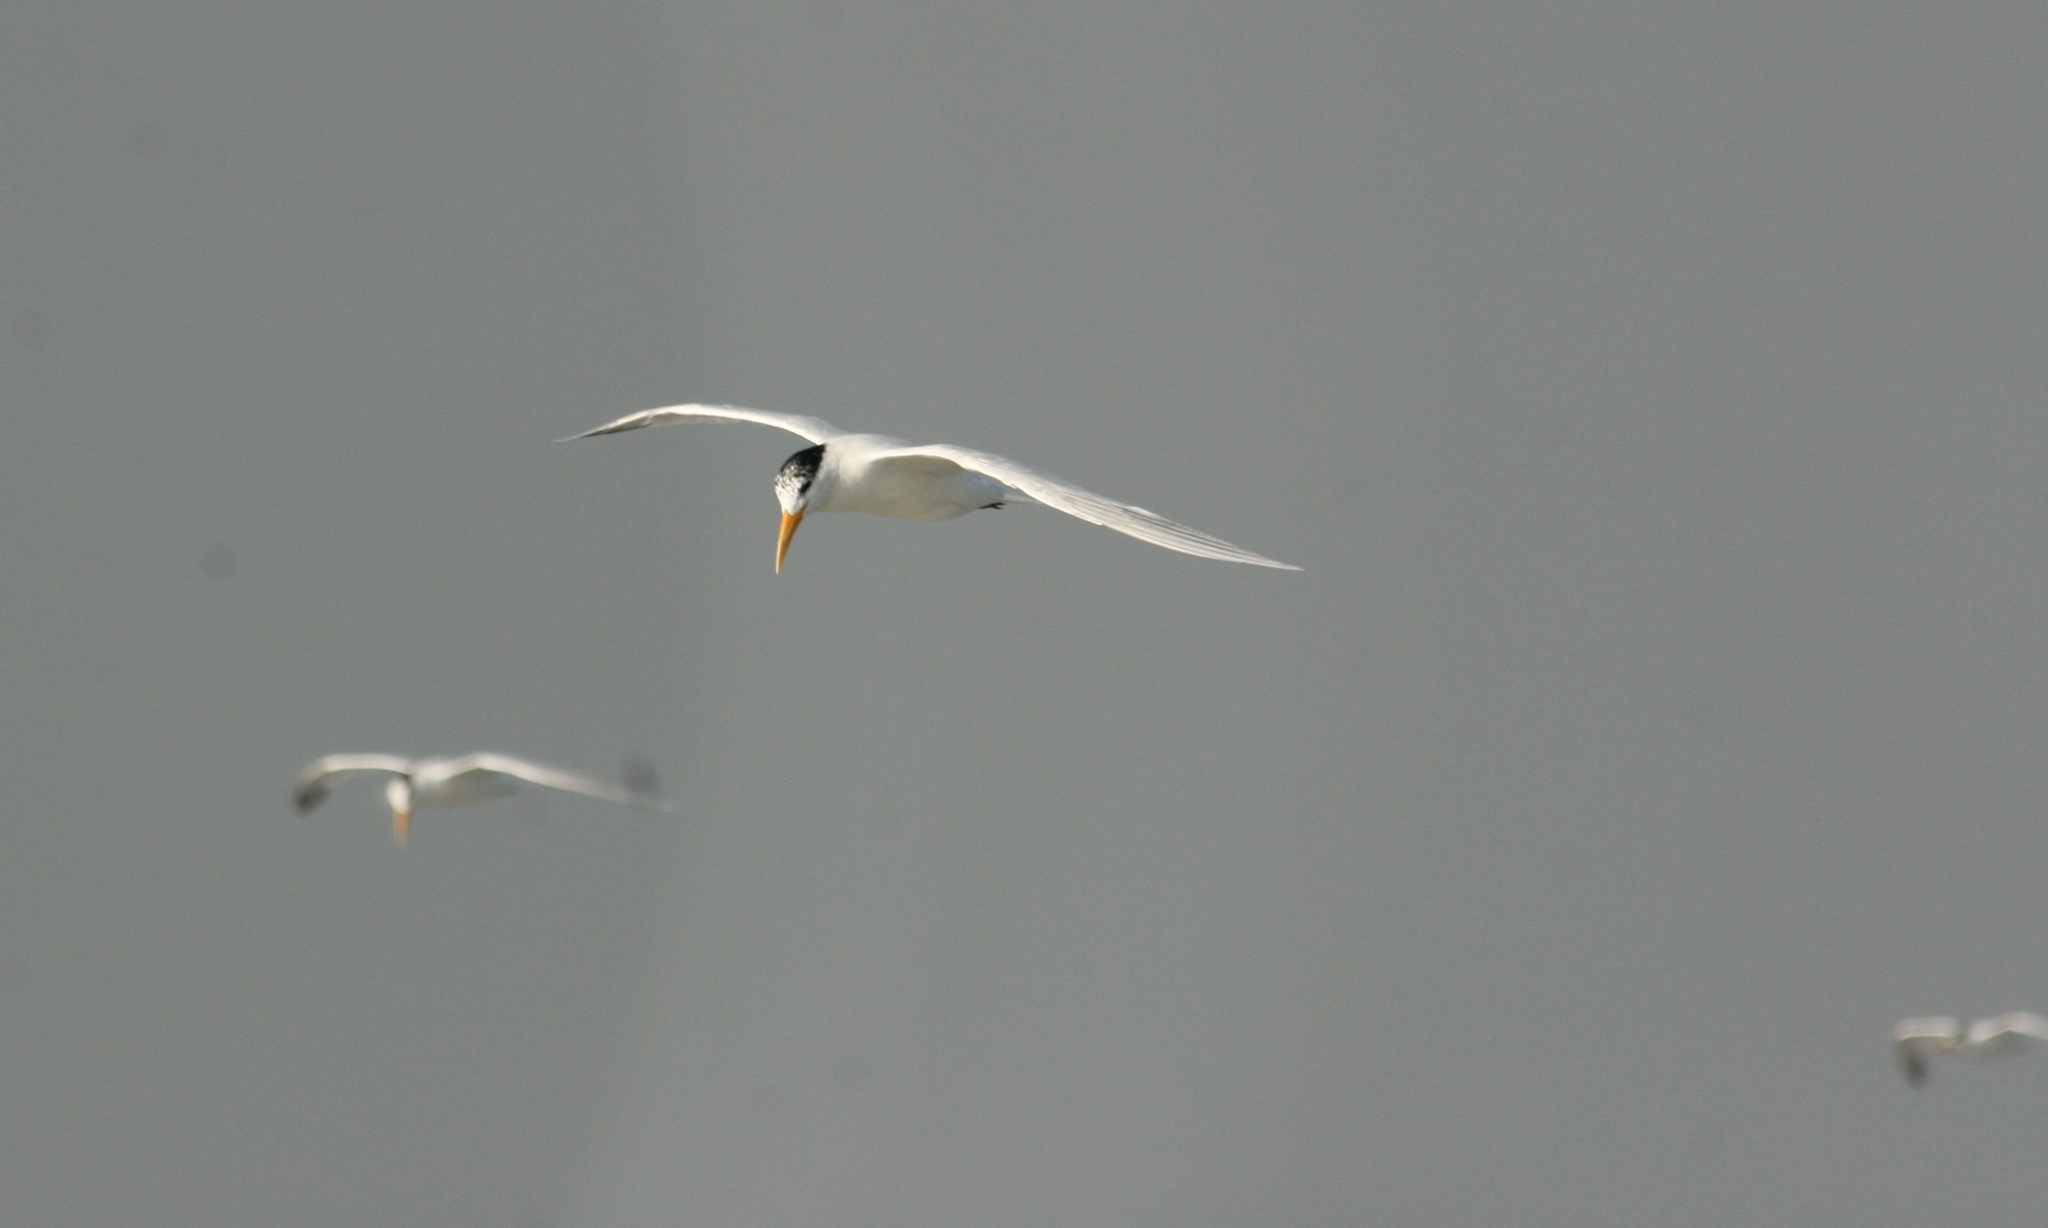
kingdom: Animalia
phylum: Chordata
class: Aves
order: Charadriiformes
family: Laridae
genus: Thalasseus
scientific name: Thalasseus albididorsalis
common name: West african crested tern
